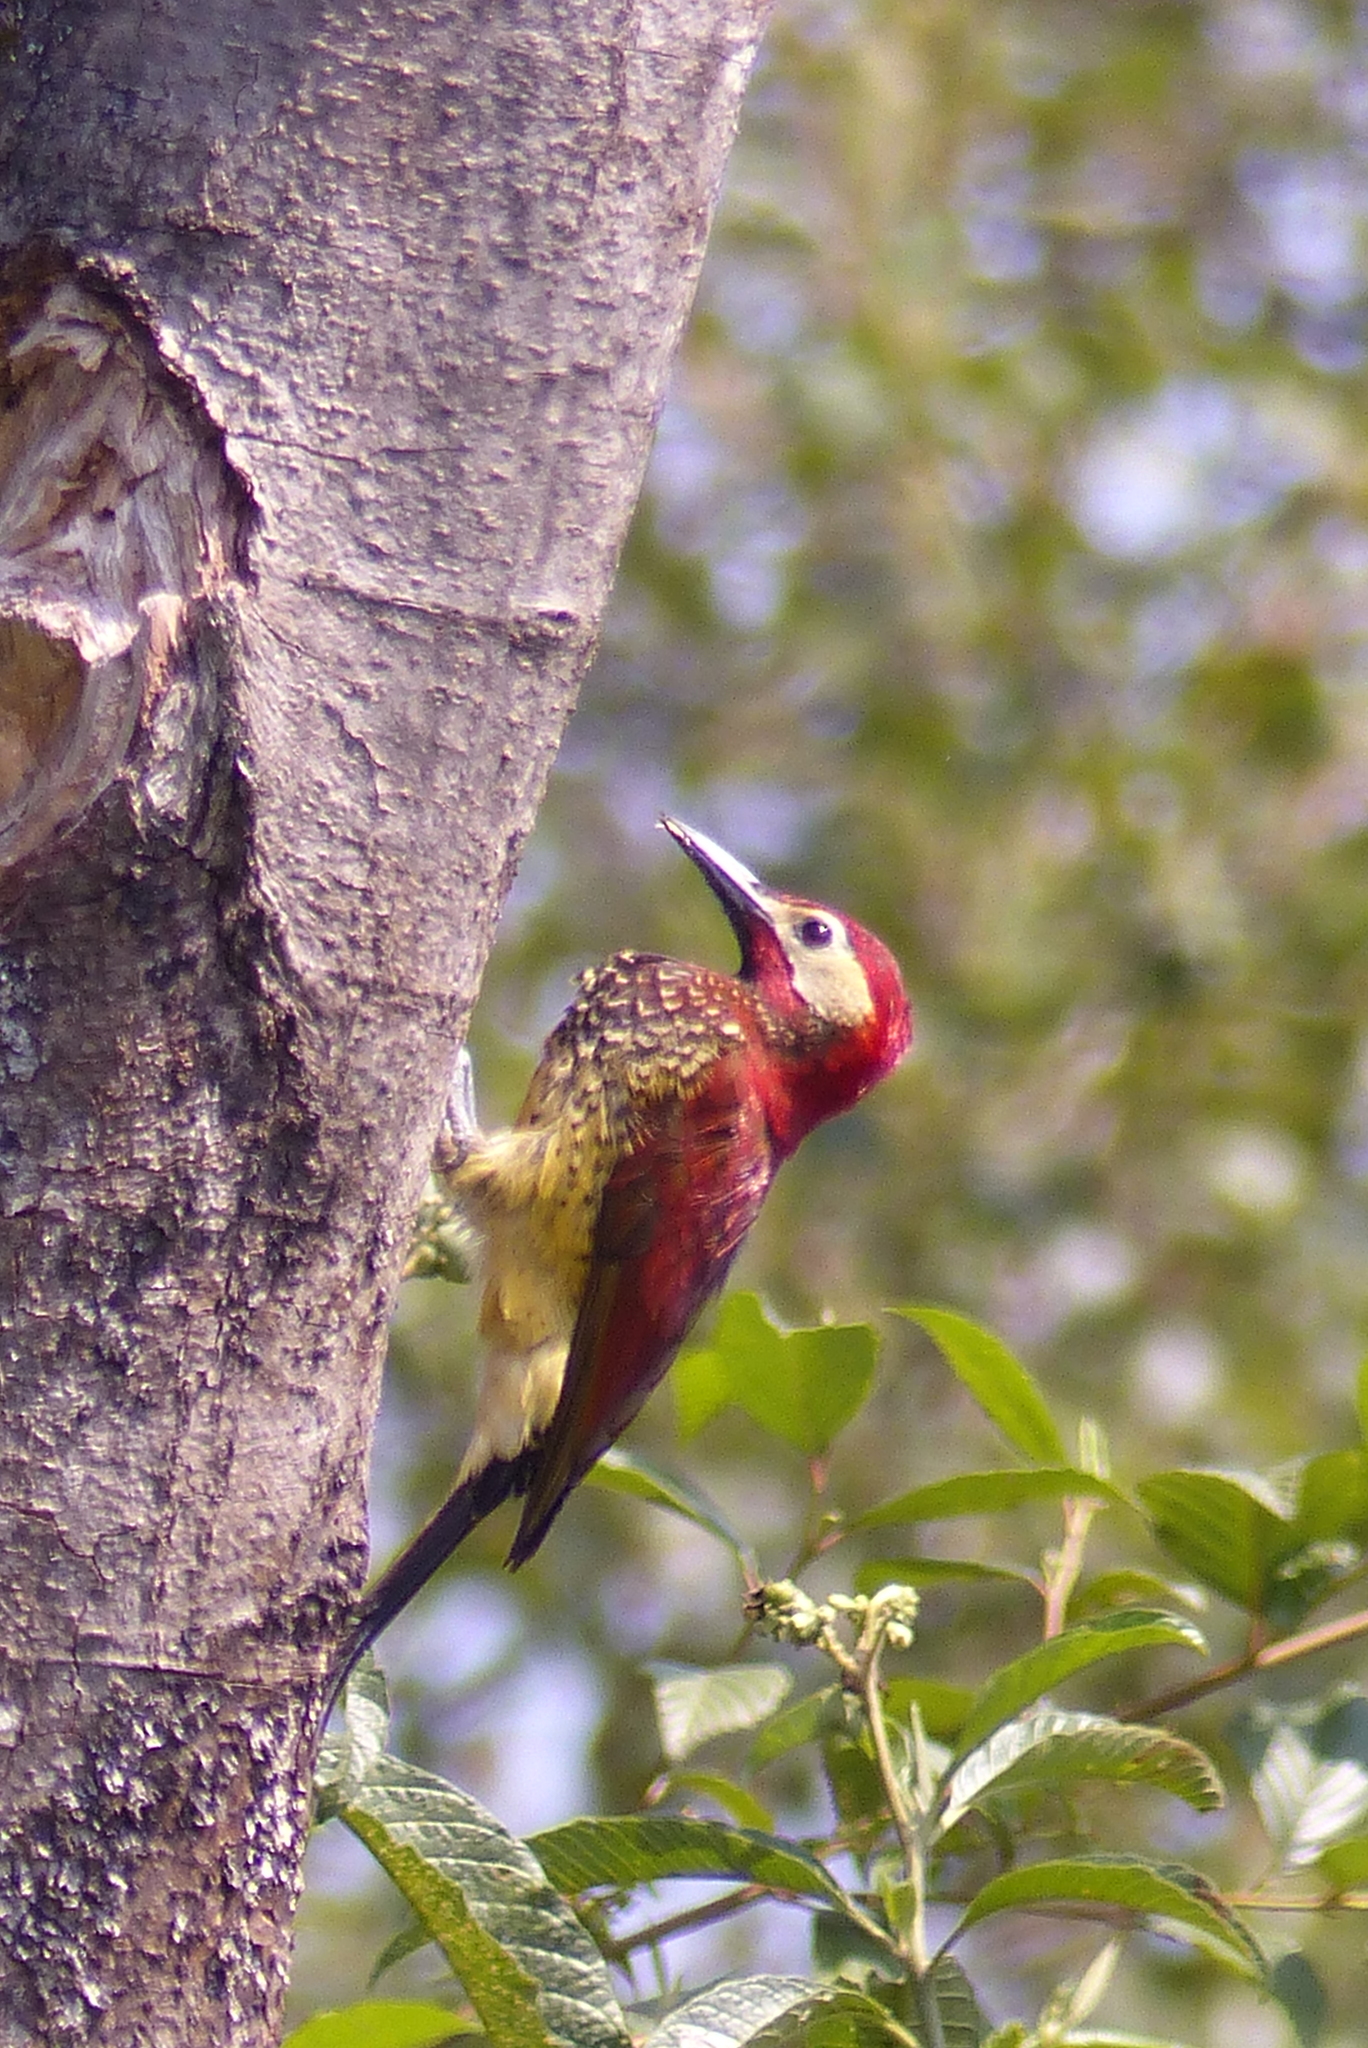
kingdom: Animalia
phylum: Chordata
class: Aves
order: Piciformes
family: Picidae
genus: Colaptes
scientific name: Colaptes rivolii
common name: Crimson-mantled woodpecker
